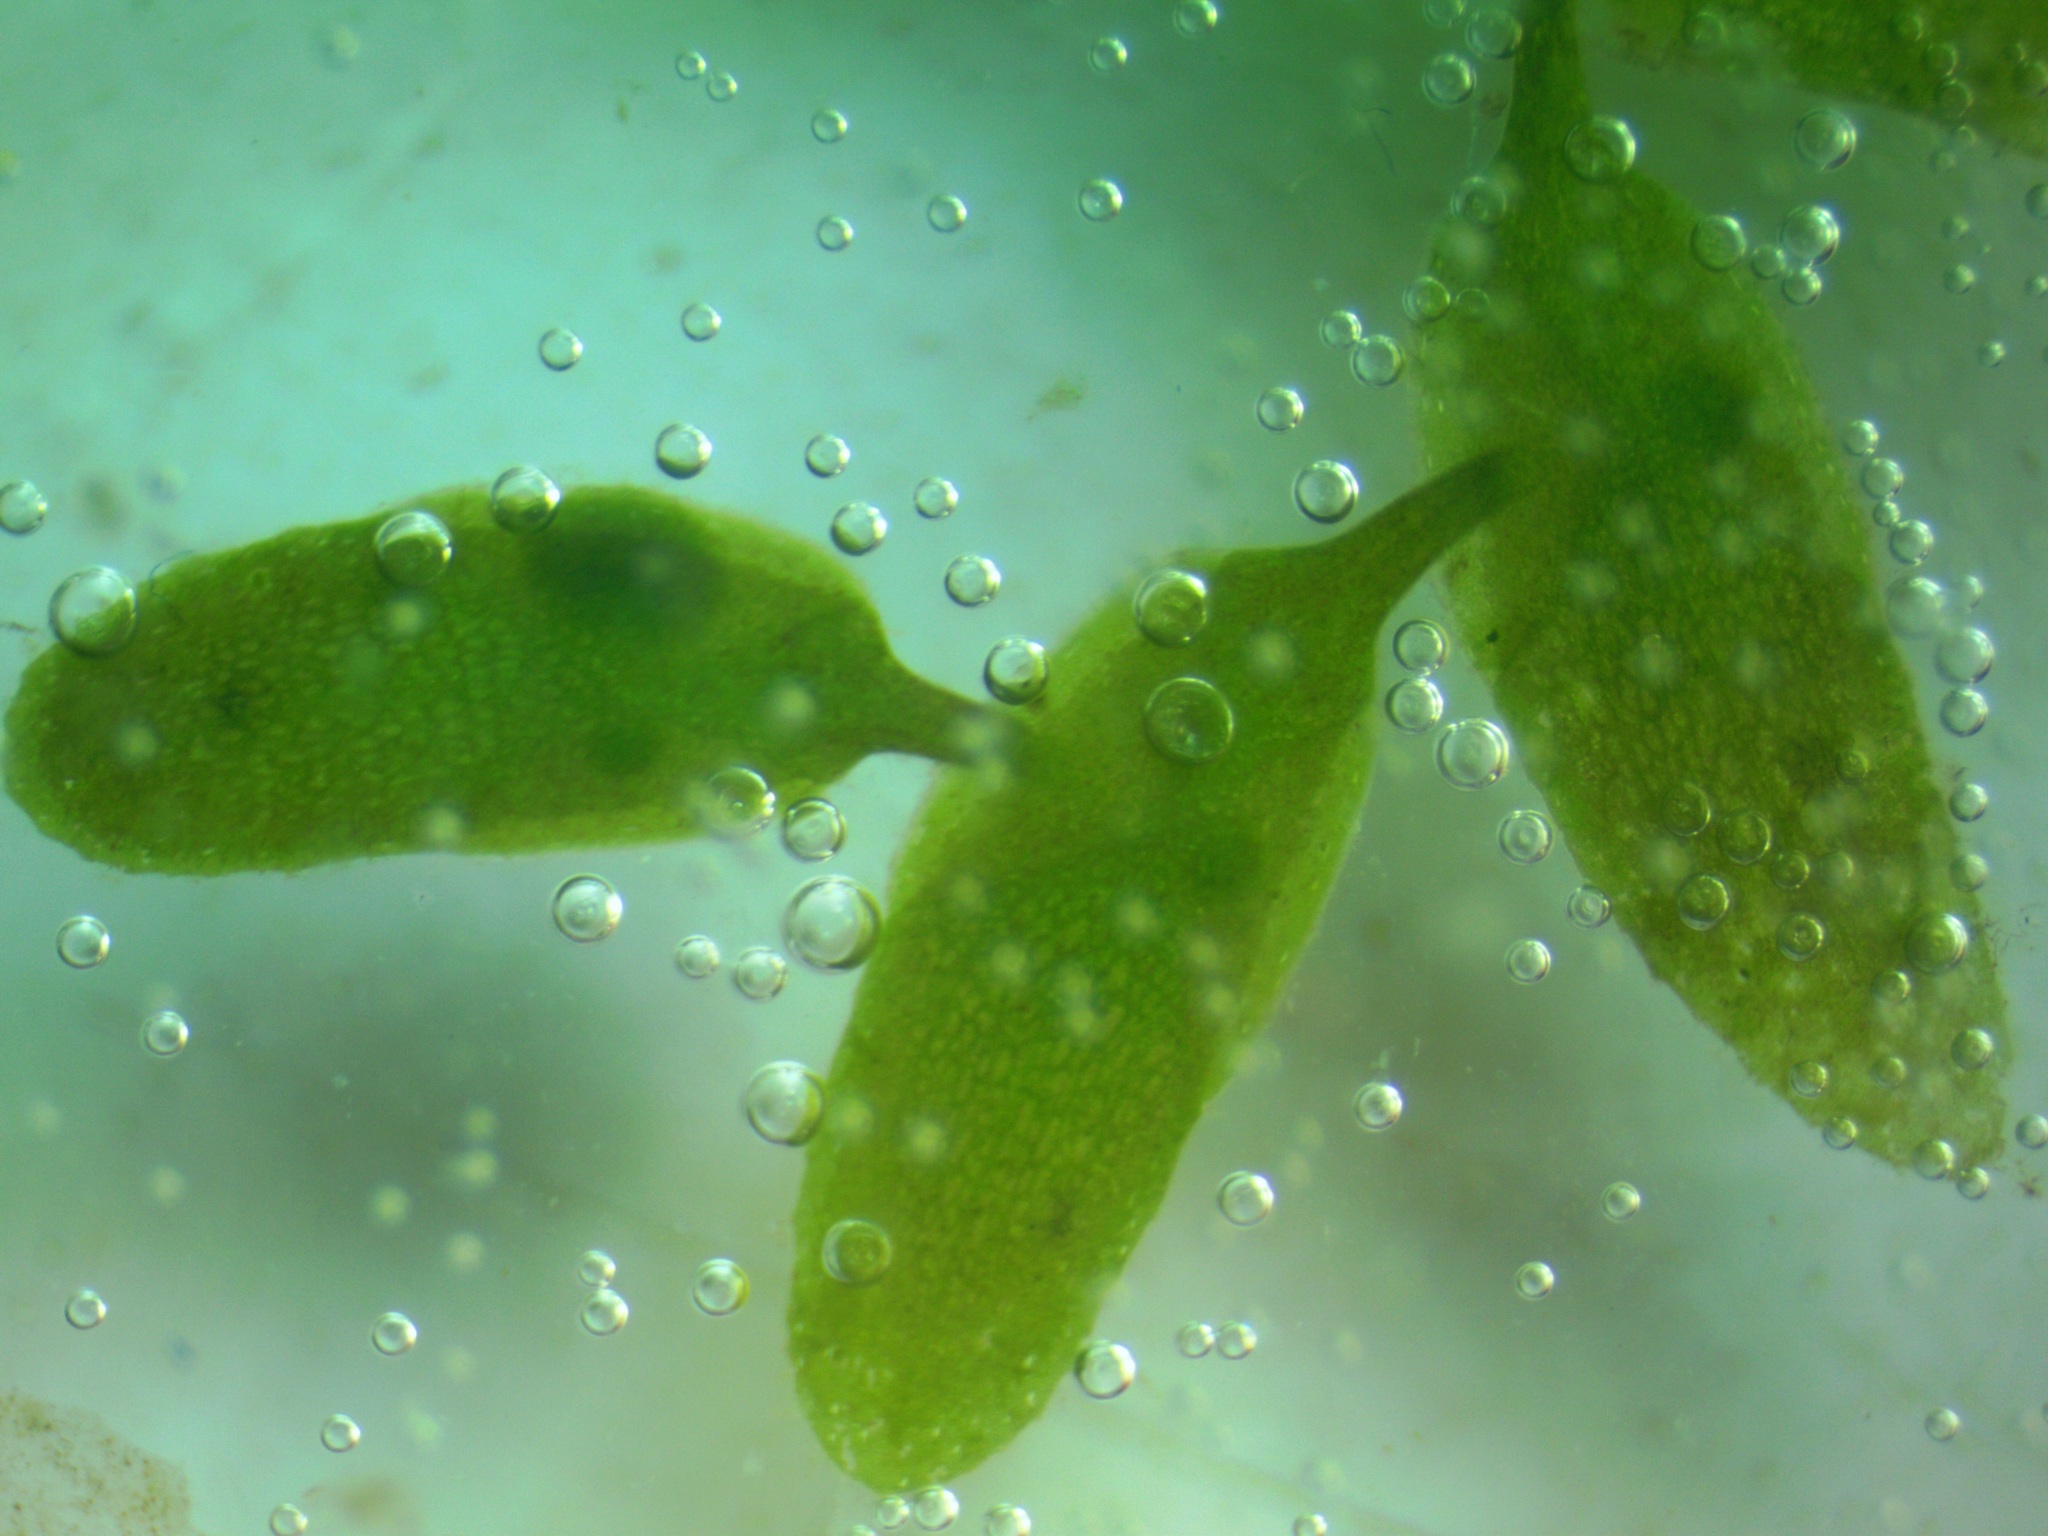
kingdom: Plantae
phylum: Tracheophyta
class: Liliopsida
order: Alismatales
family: Araceae
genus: Lemna
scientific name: Lemna trisulca
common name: Ivy-leaved duckweed
